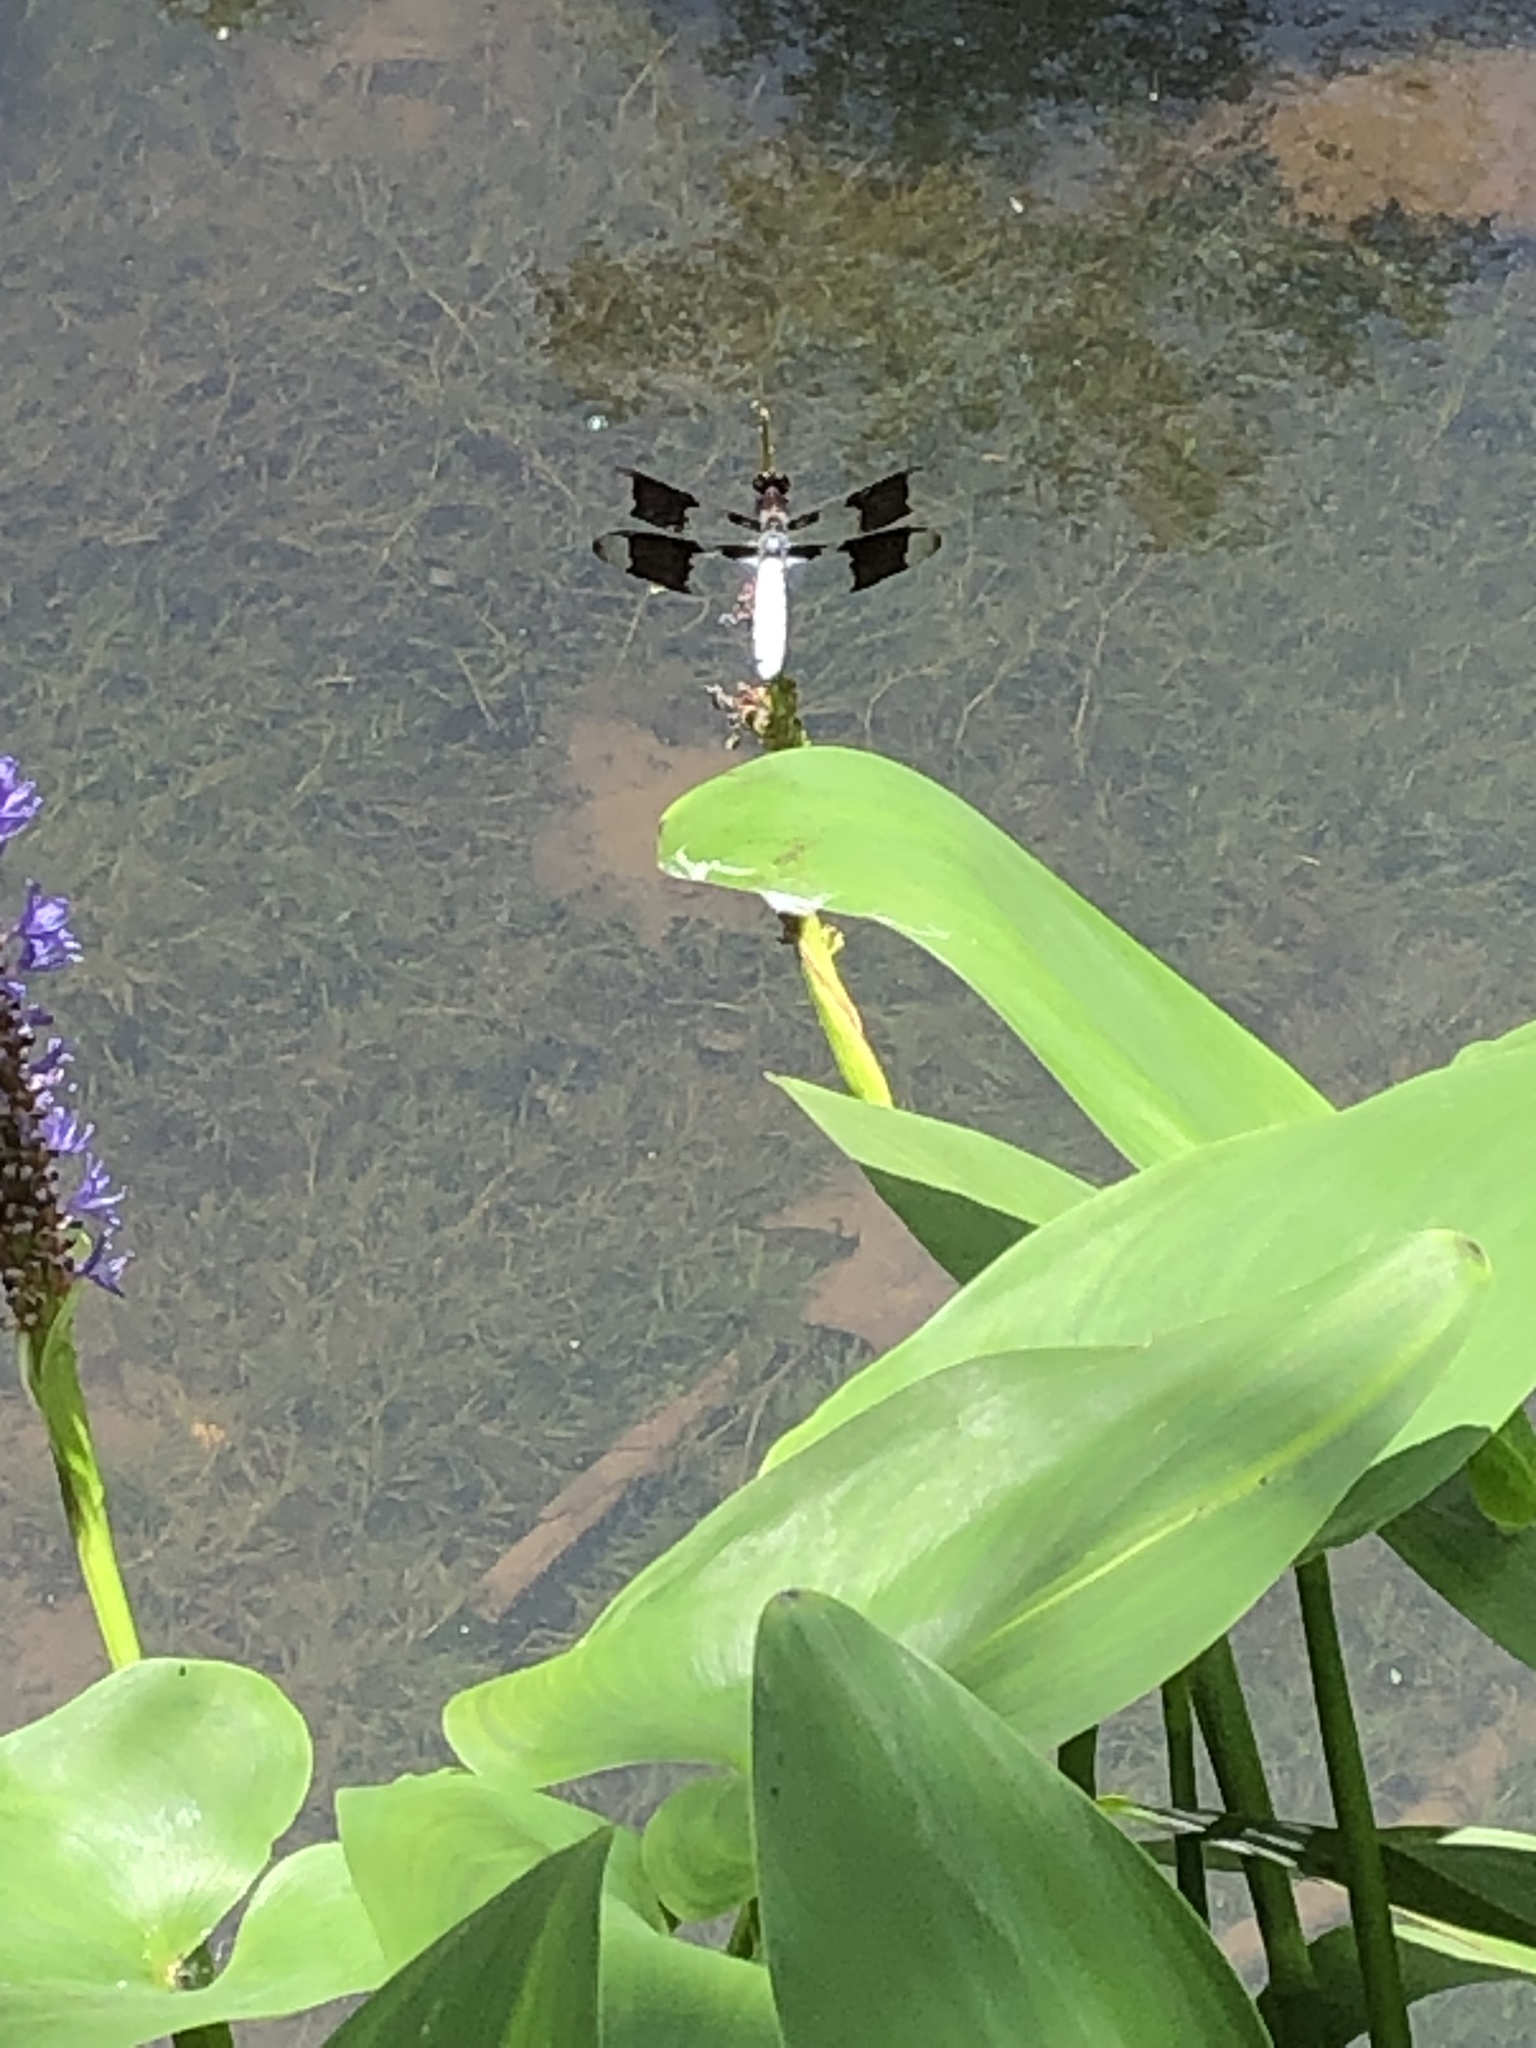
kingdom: Animalia
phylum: Arthropoda
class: Insecta
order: Odonata
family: Libellulidae
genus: Plathemis
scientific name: Plathemis lydia
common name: Common whitetail
